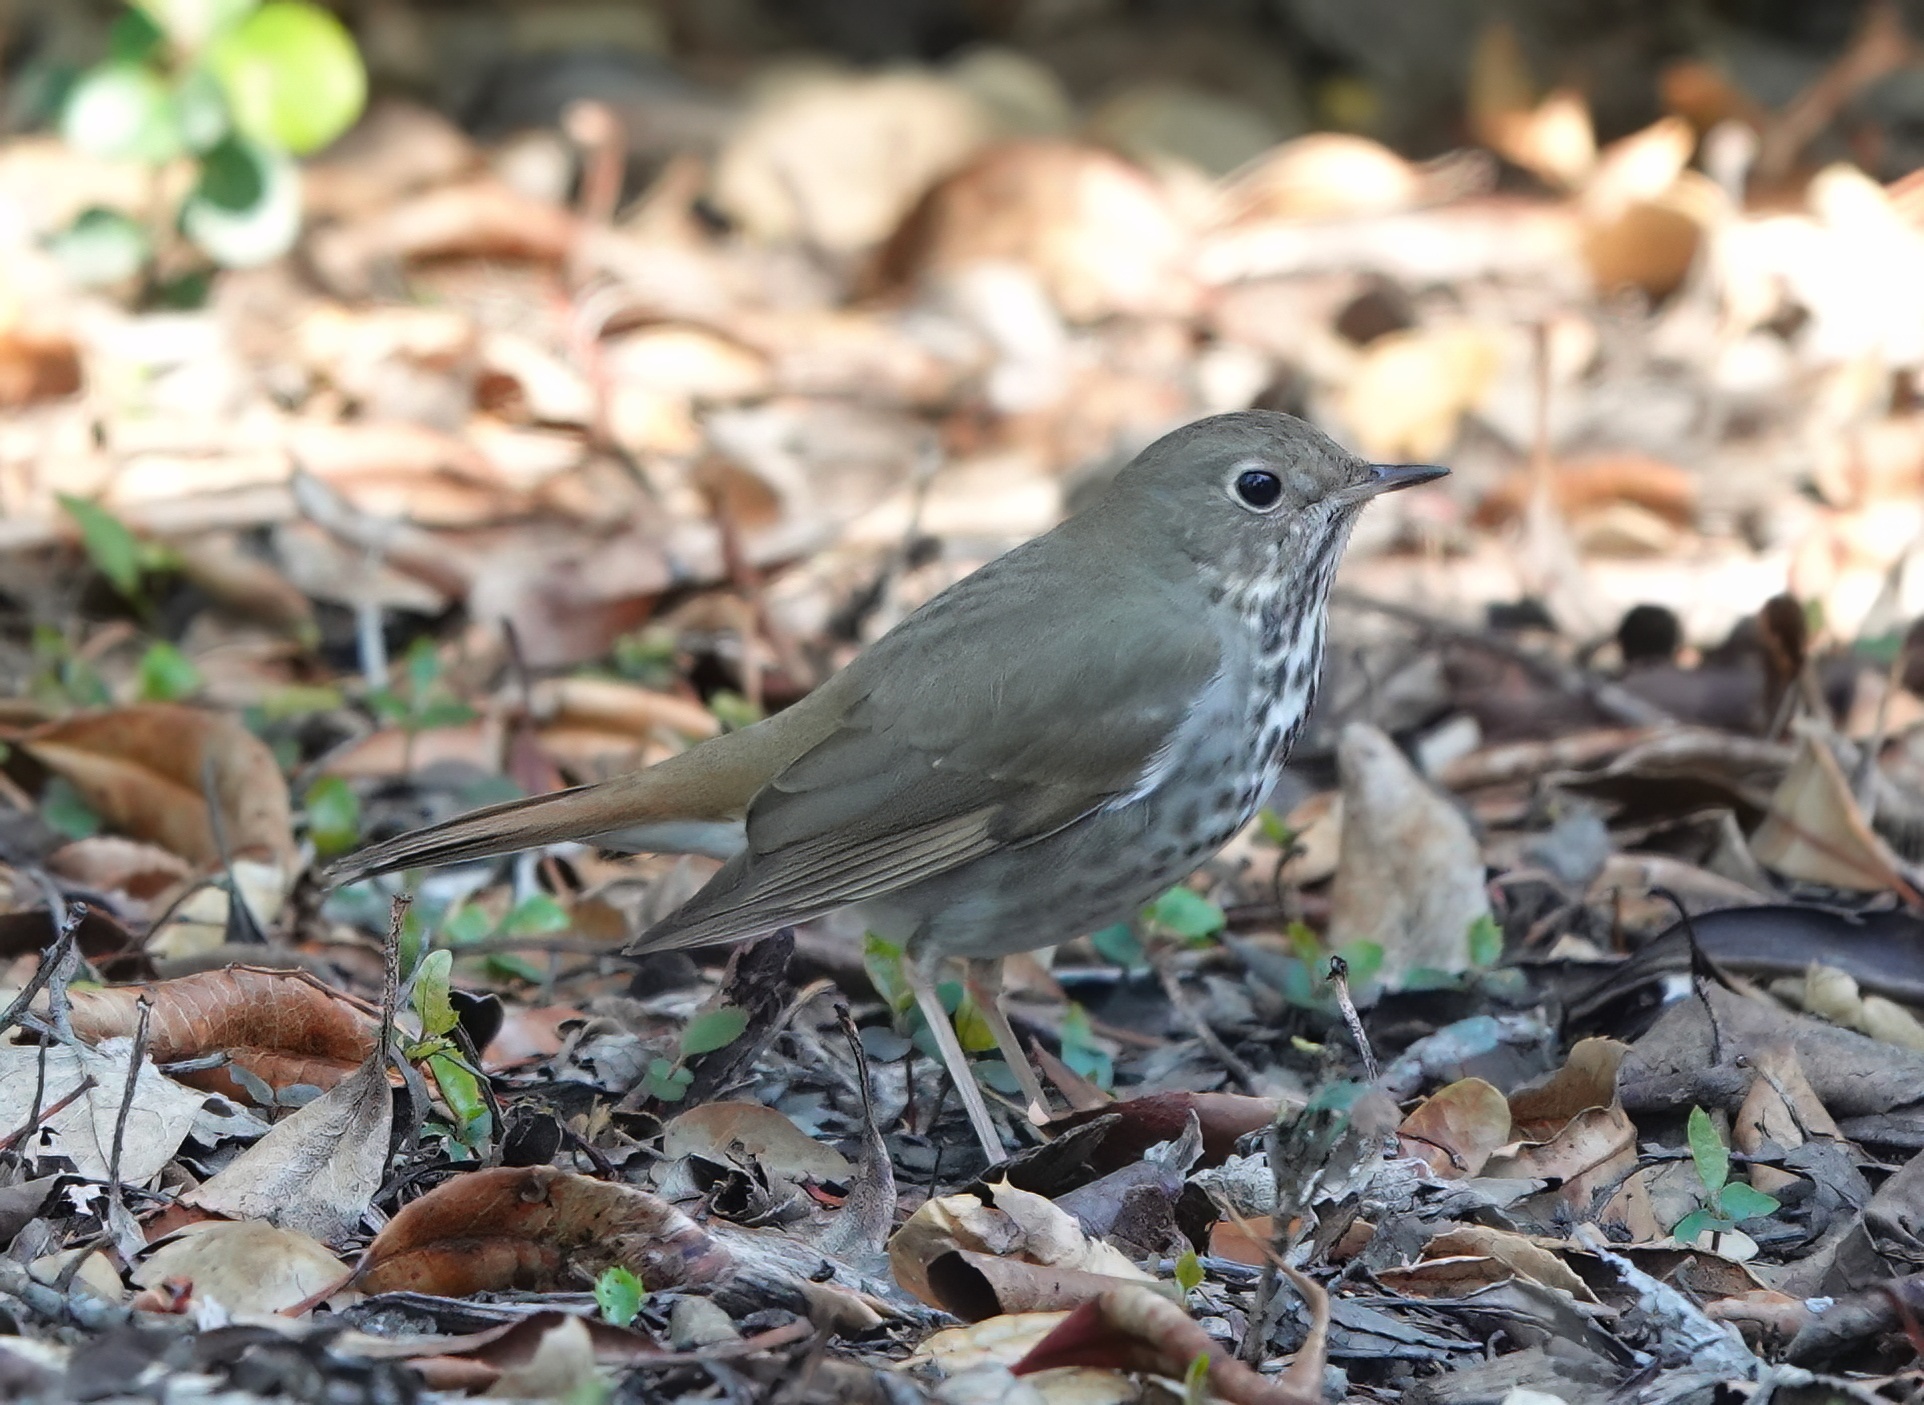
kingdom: Animalia
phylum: Chordata
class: Aves
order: Passeriformes
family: Turdidae
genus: Catharus
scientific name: Catharus guttatus
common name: Hermit thrush
